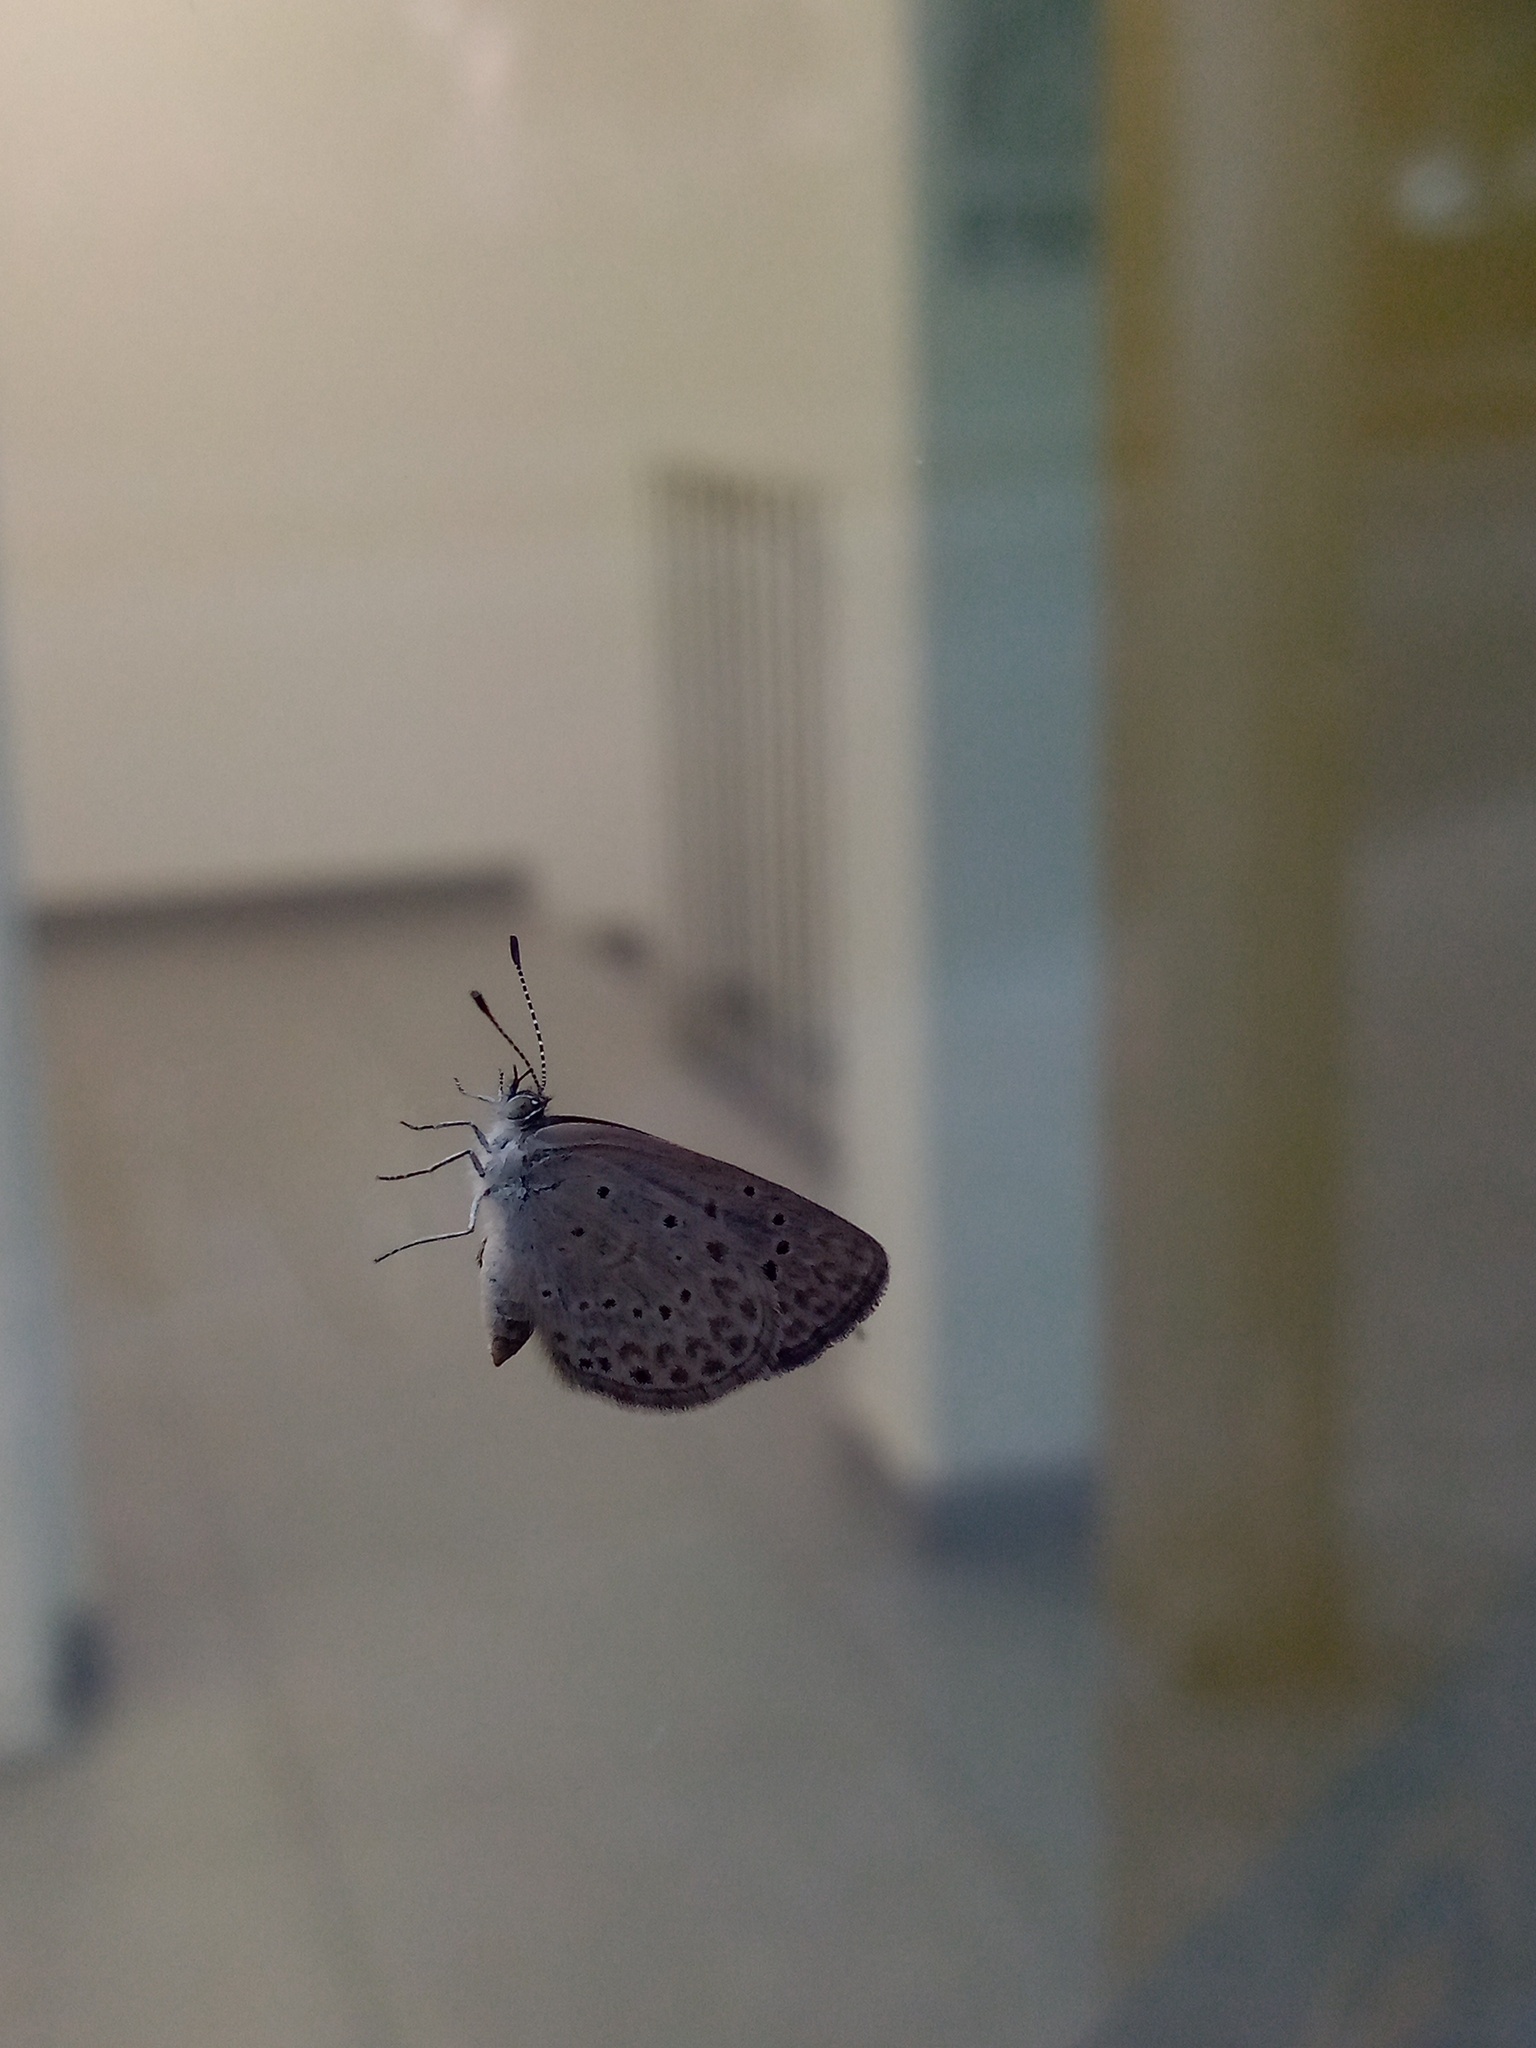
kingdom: Animalia
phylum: Arthropoda
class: Insecta
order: Lepidoptera
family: Lycaenidae
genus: Zizeeria
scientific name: Zizeeria knysna
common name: African grass blue
